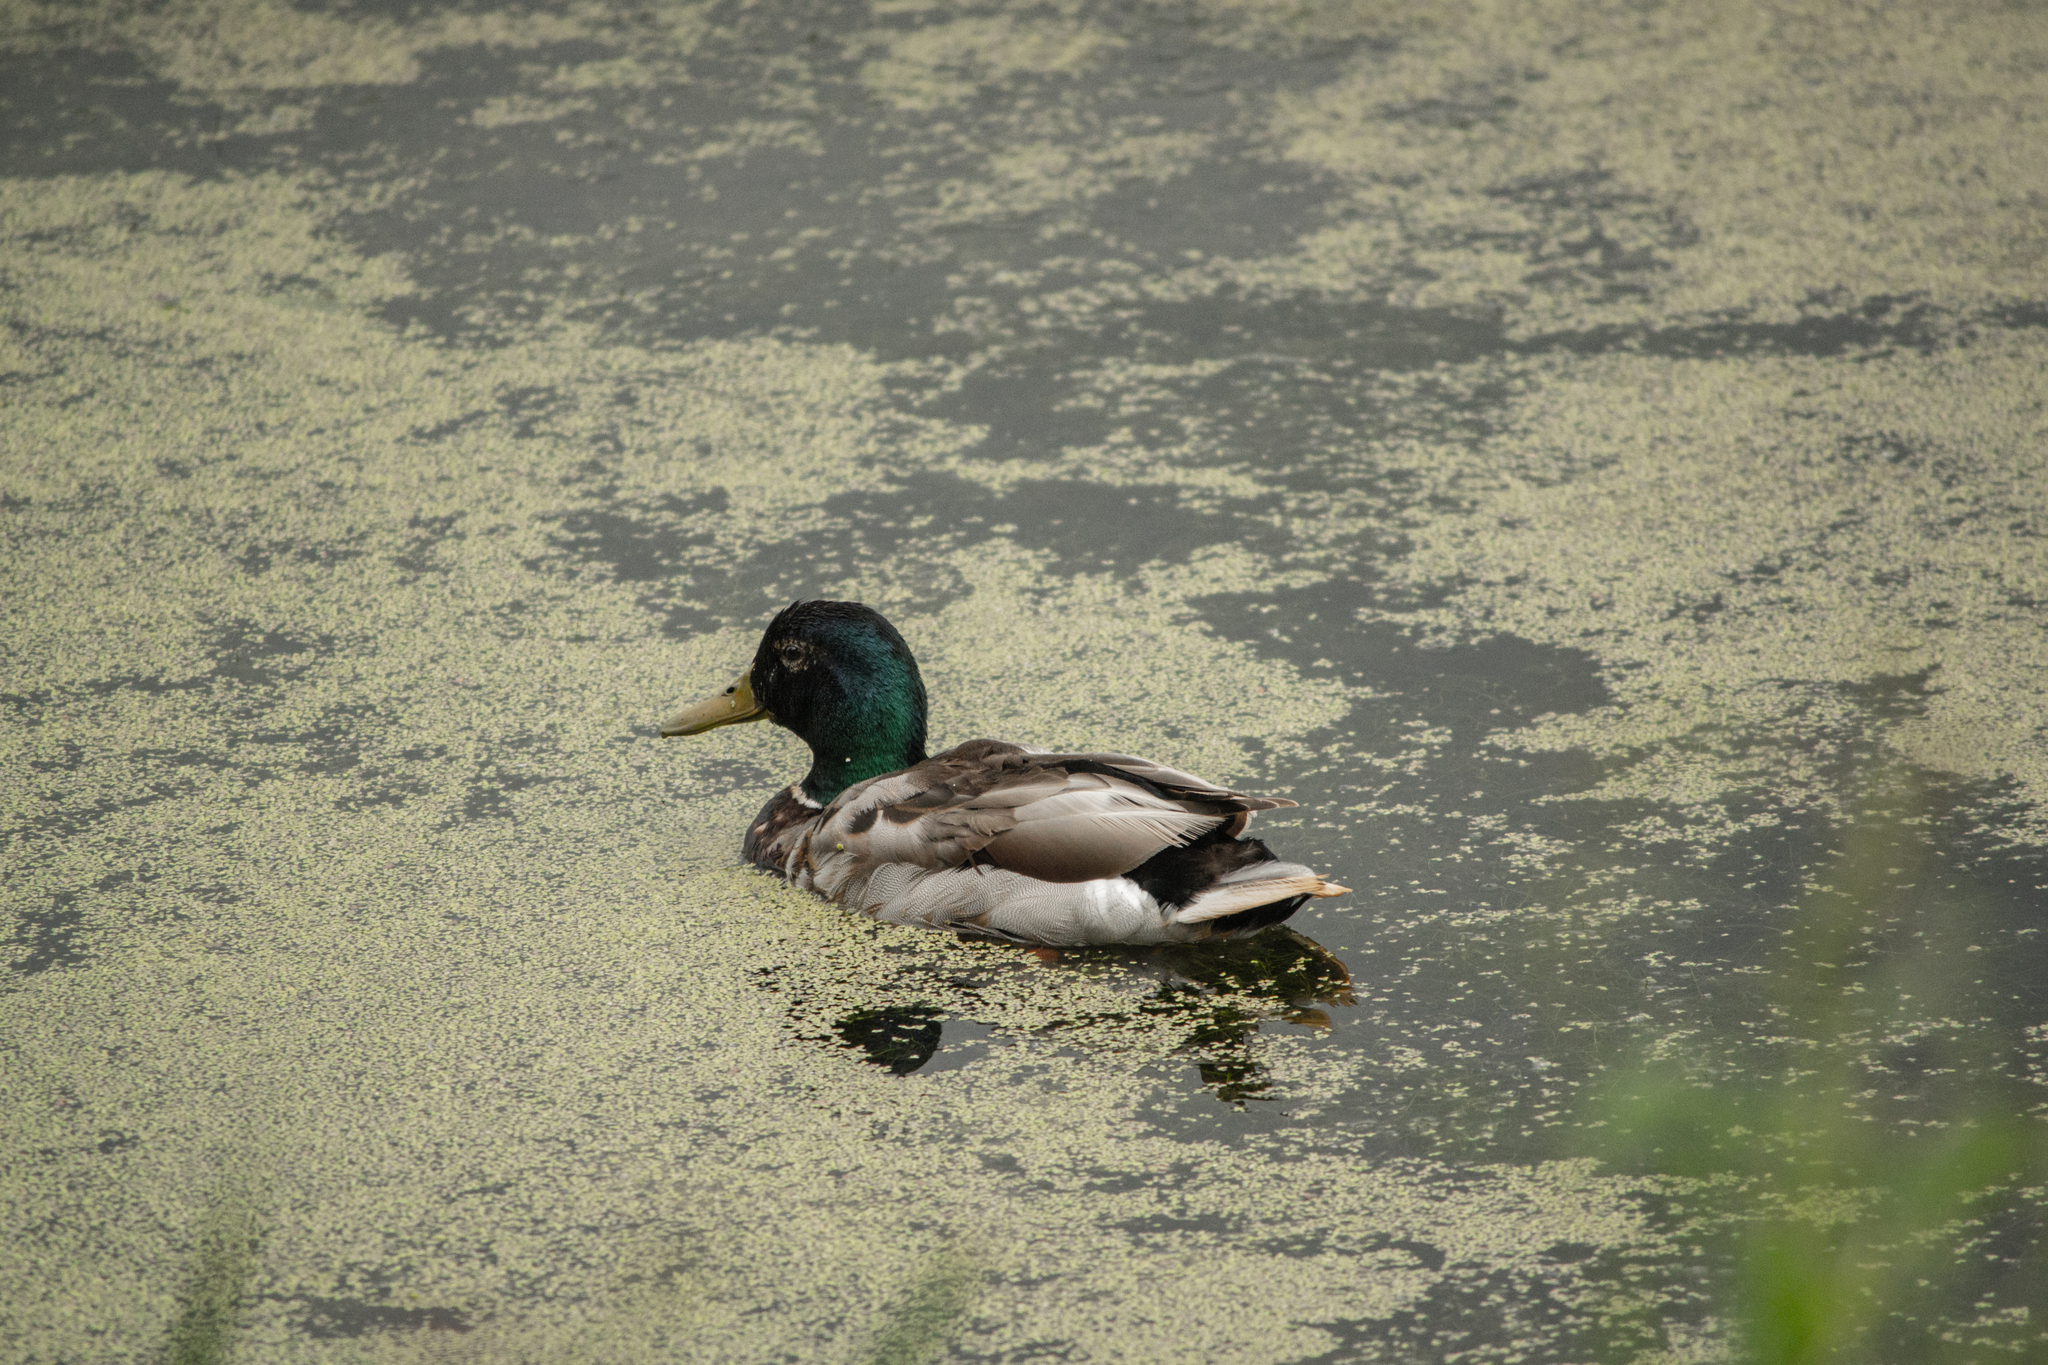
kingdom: Animalia
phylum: Chordata
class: Aves
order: Anseriformes
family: Anatidae
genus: Anas
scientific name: Anas platyrhynchos
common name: Mallard
